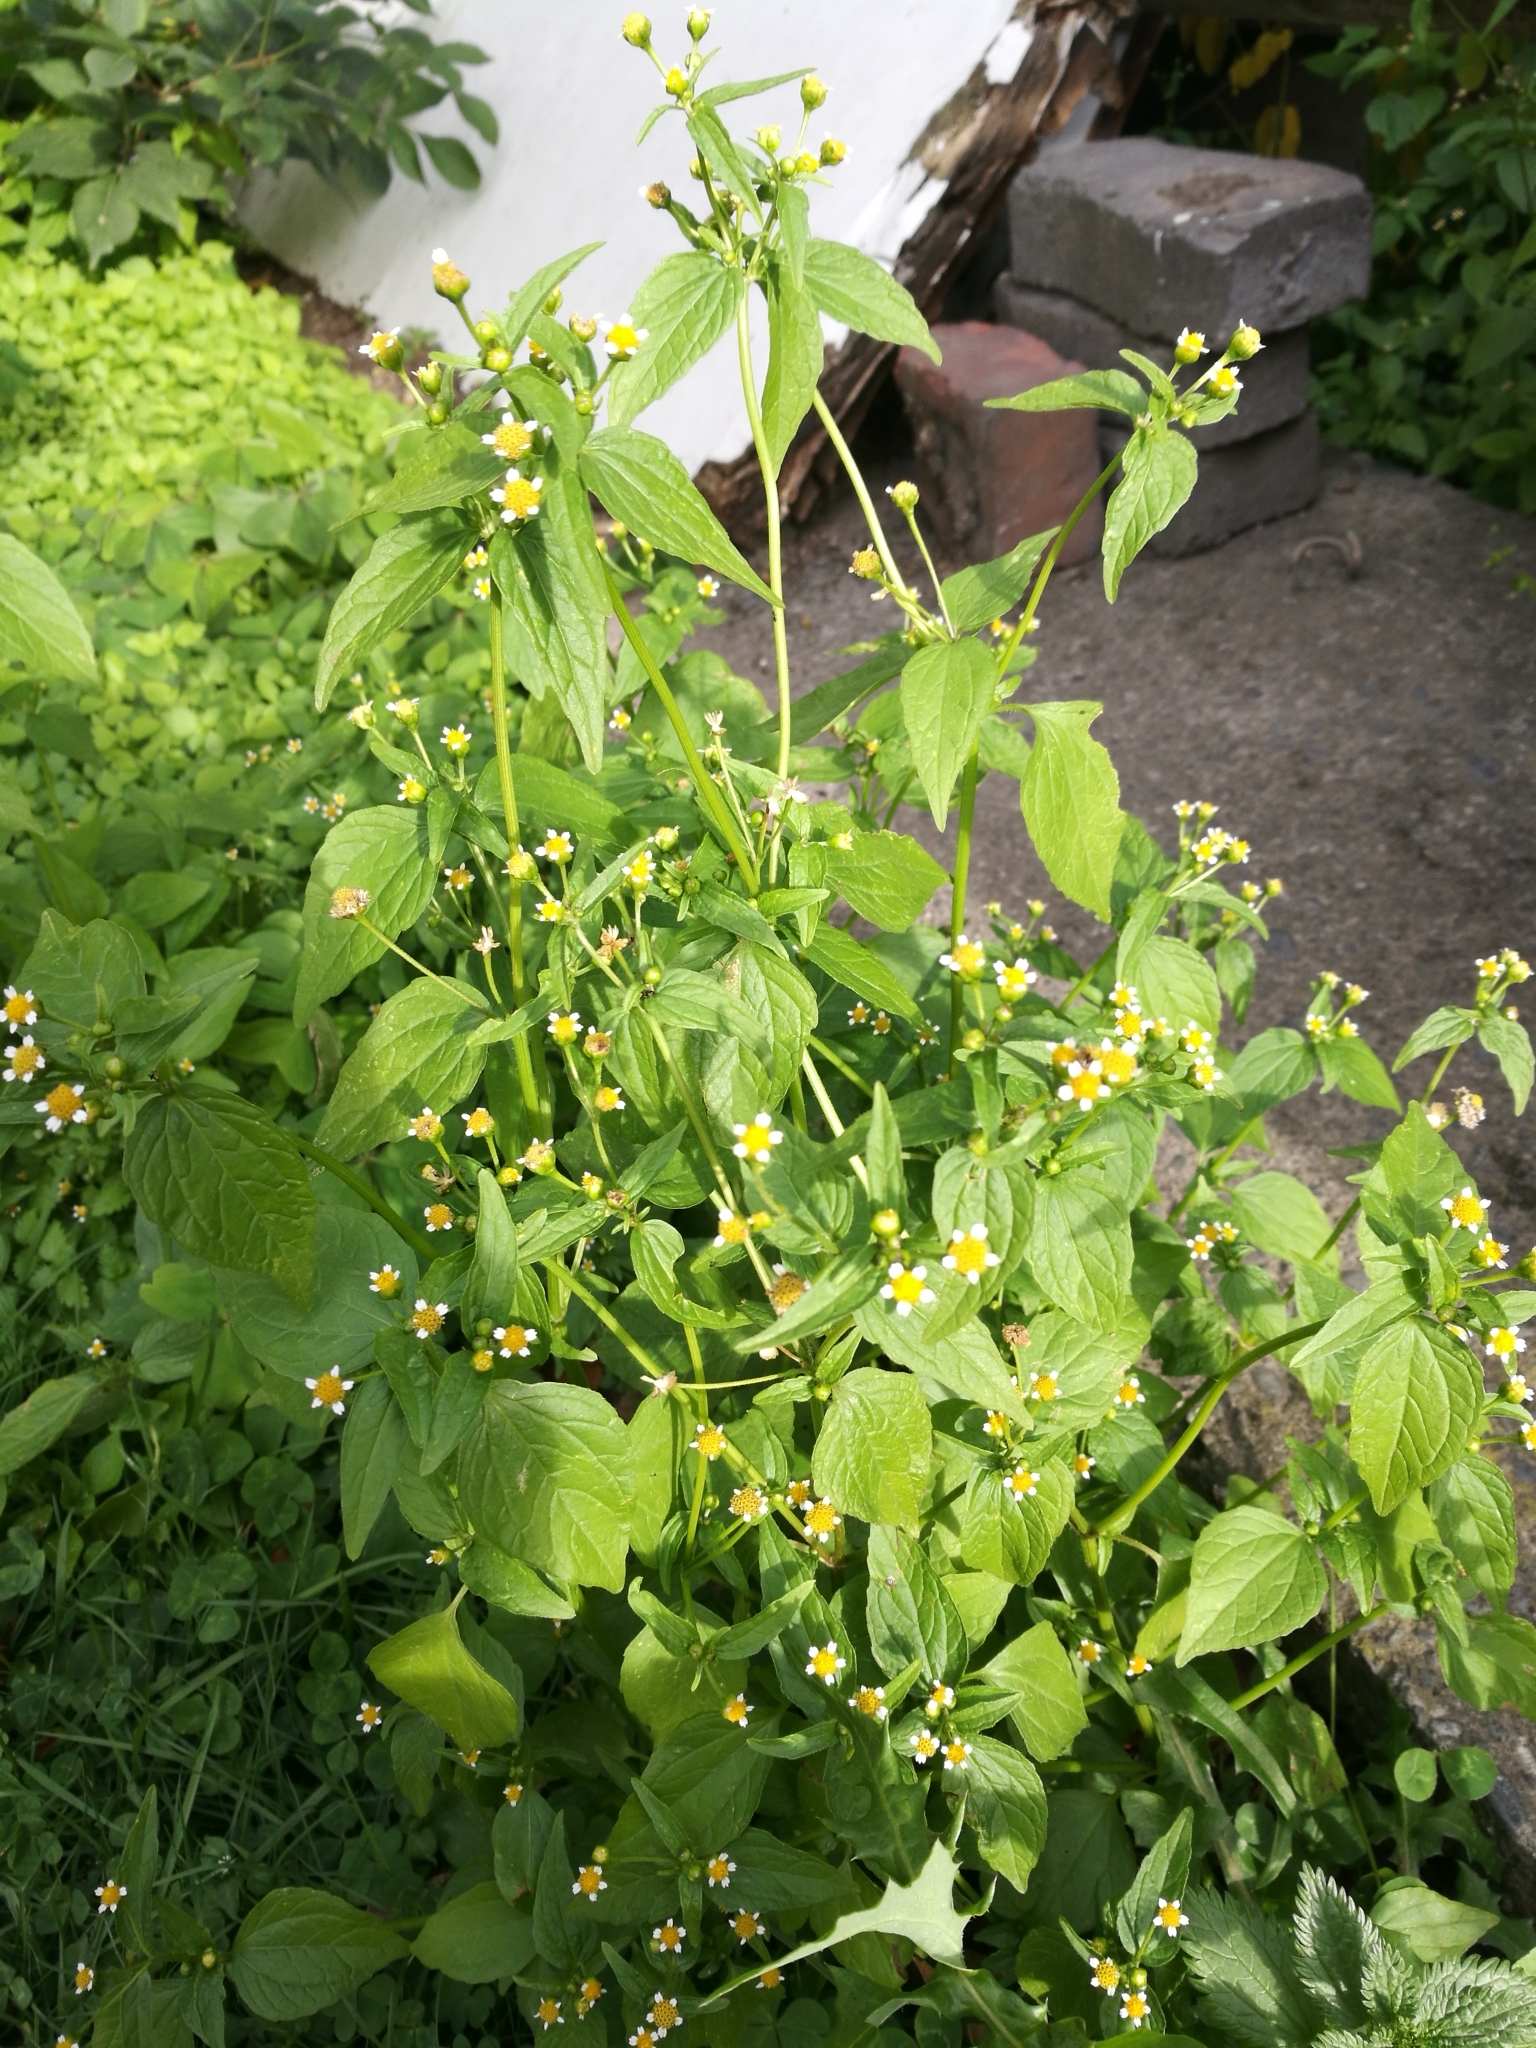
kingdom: Plantae
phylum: Tracheophyta
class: Magnoliopsida
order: Asterales
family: Asteraceae
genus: Galinsoga
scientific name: Galinsoga parviflora
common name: Gallant soldier
